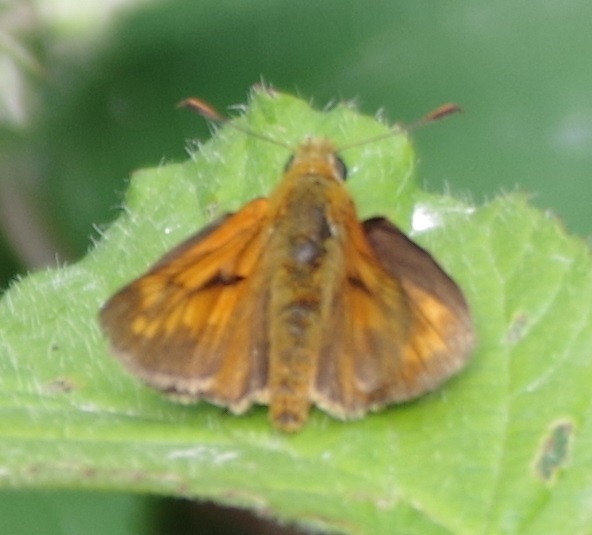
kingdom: Animalia
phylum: Arthropoda
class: Insecta
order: Lepidoptera
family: Hesperiidae
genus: Ochlodes
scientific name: Ochlodes venata
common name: Large skipper
